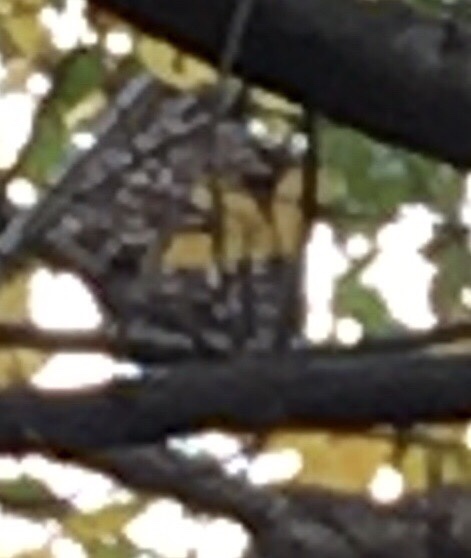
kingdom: Animalia
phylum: Chordata
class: Aves
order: Strigiformes
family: Strigidae
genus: Strix
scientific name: Strix varia
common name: Barred owl
